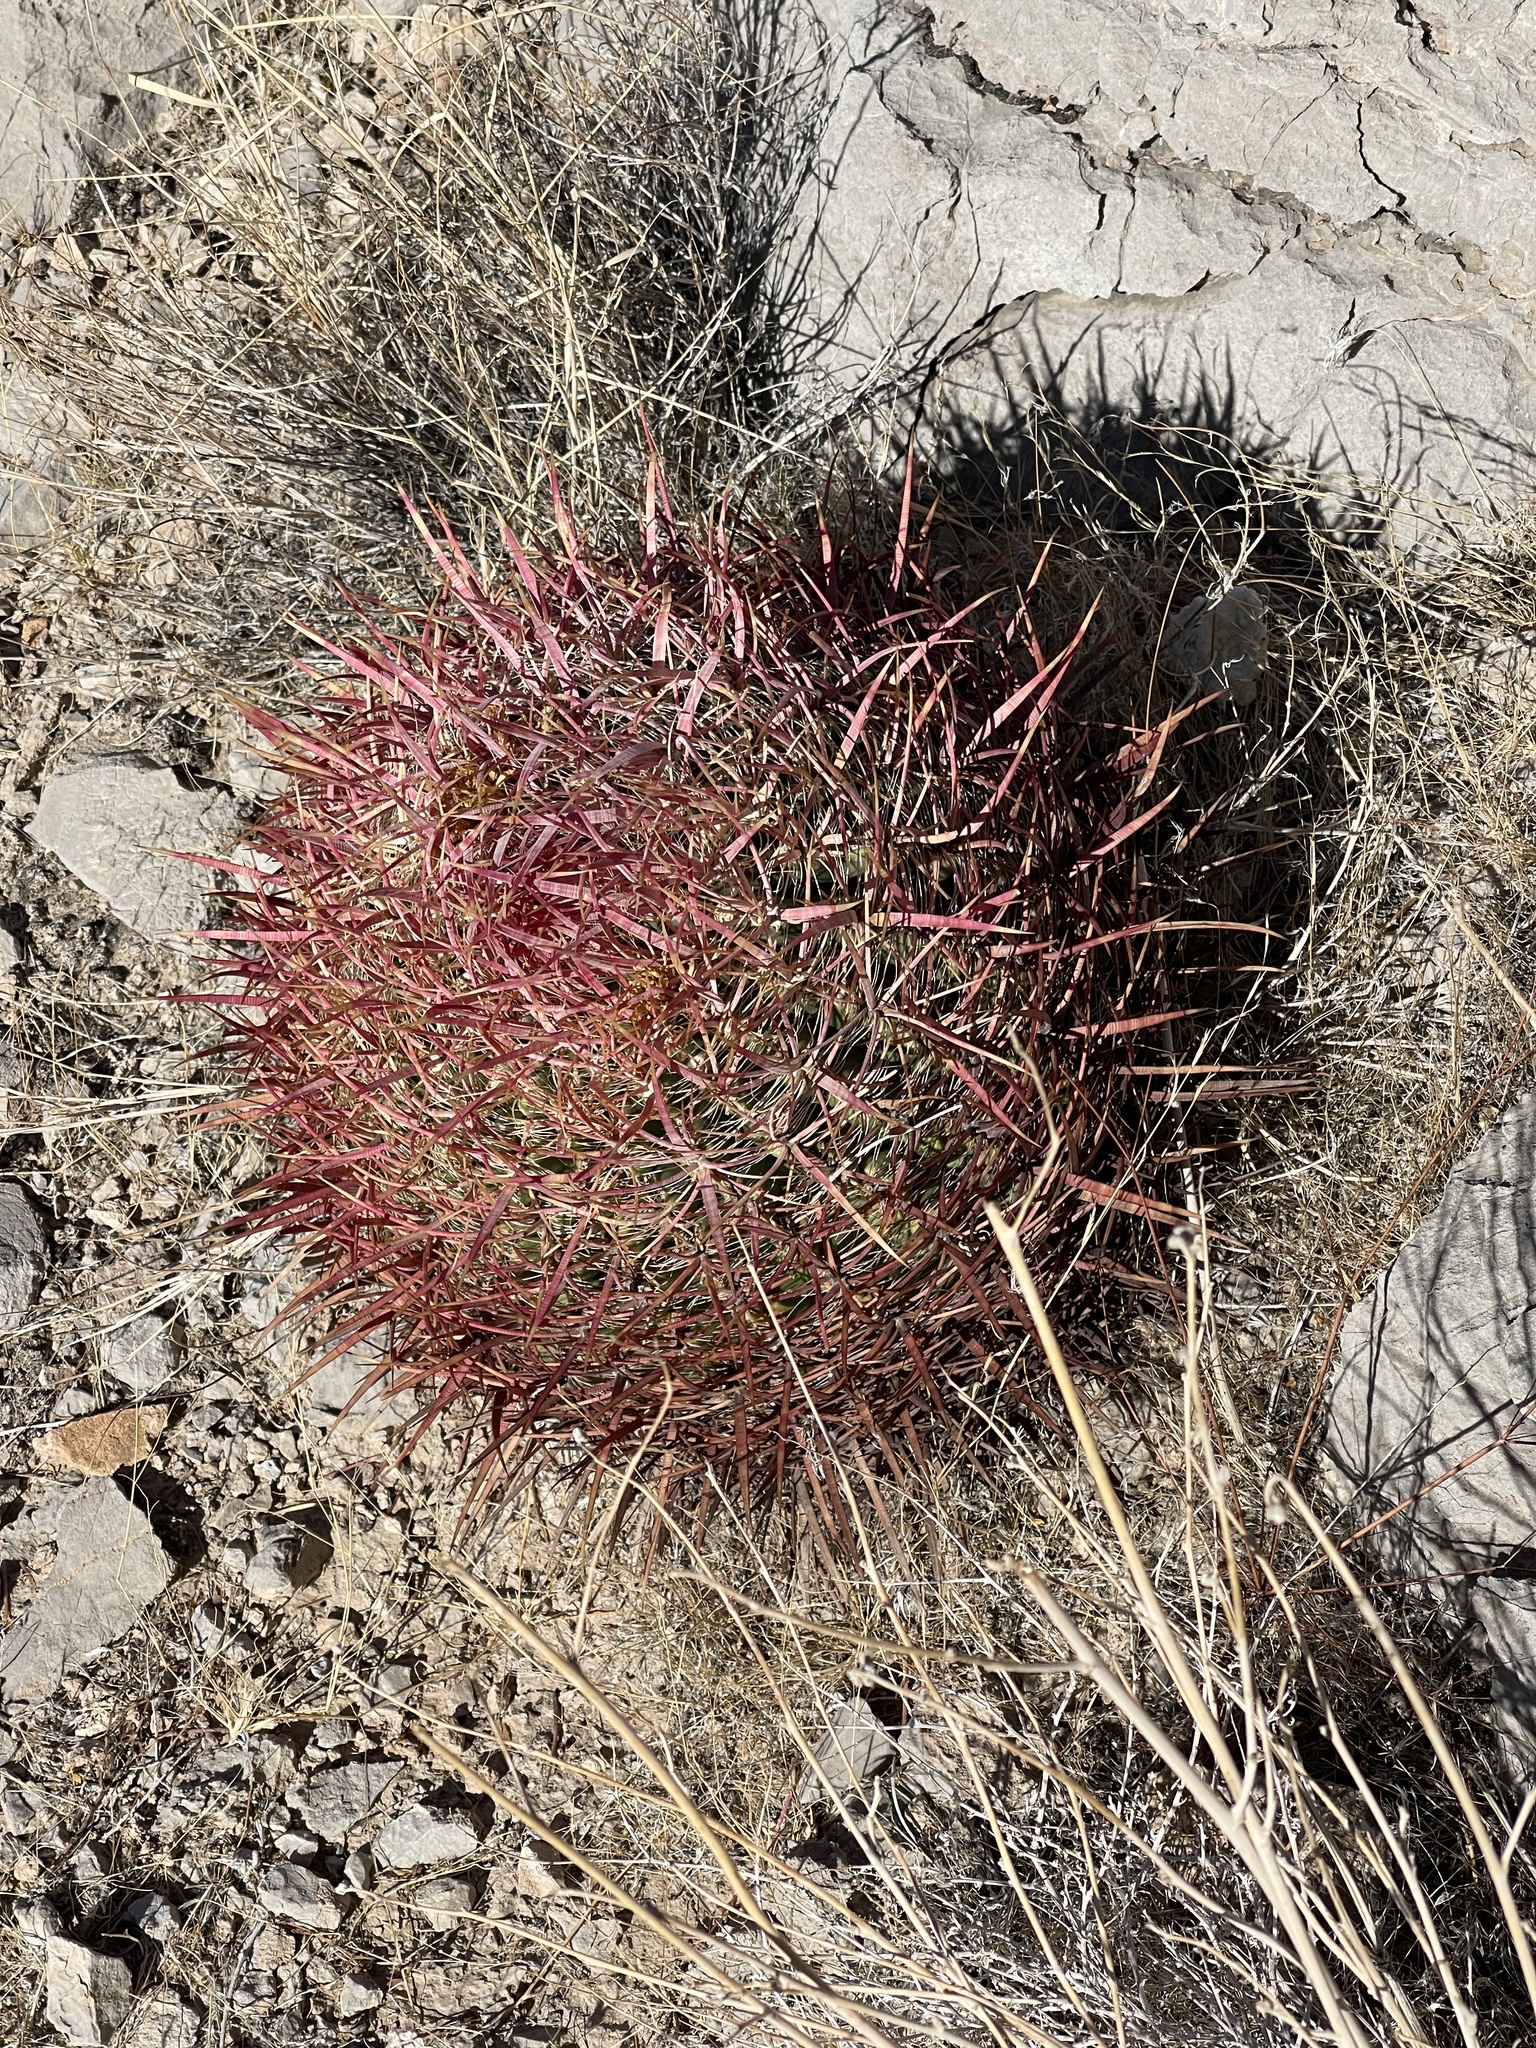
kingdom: Plantae
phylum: Tracheophyta
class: Magnoliopsida
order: Caryophyllales
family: Cactaceae
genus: Ferocactus
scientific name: Ferocactus cylindraceus
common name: California barrel cactus
